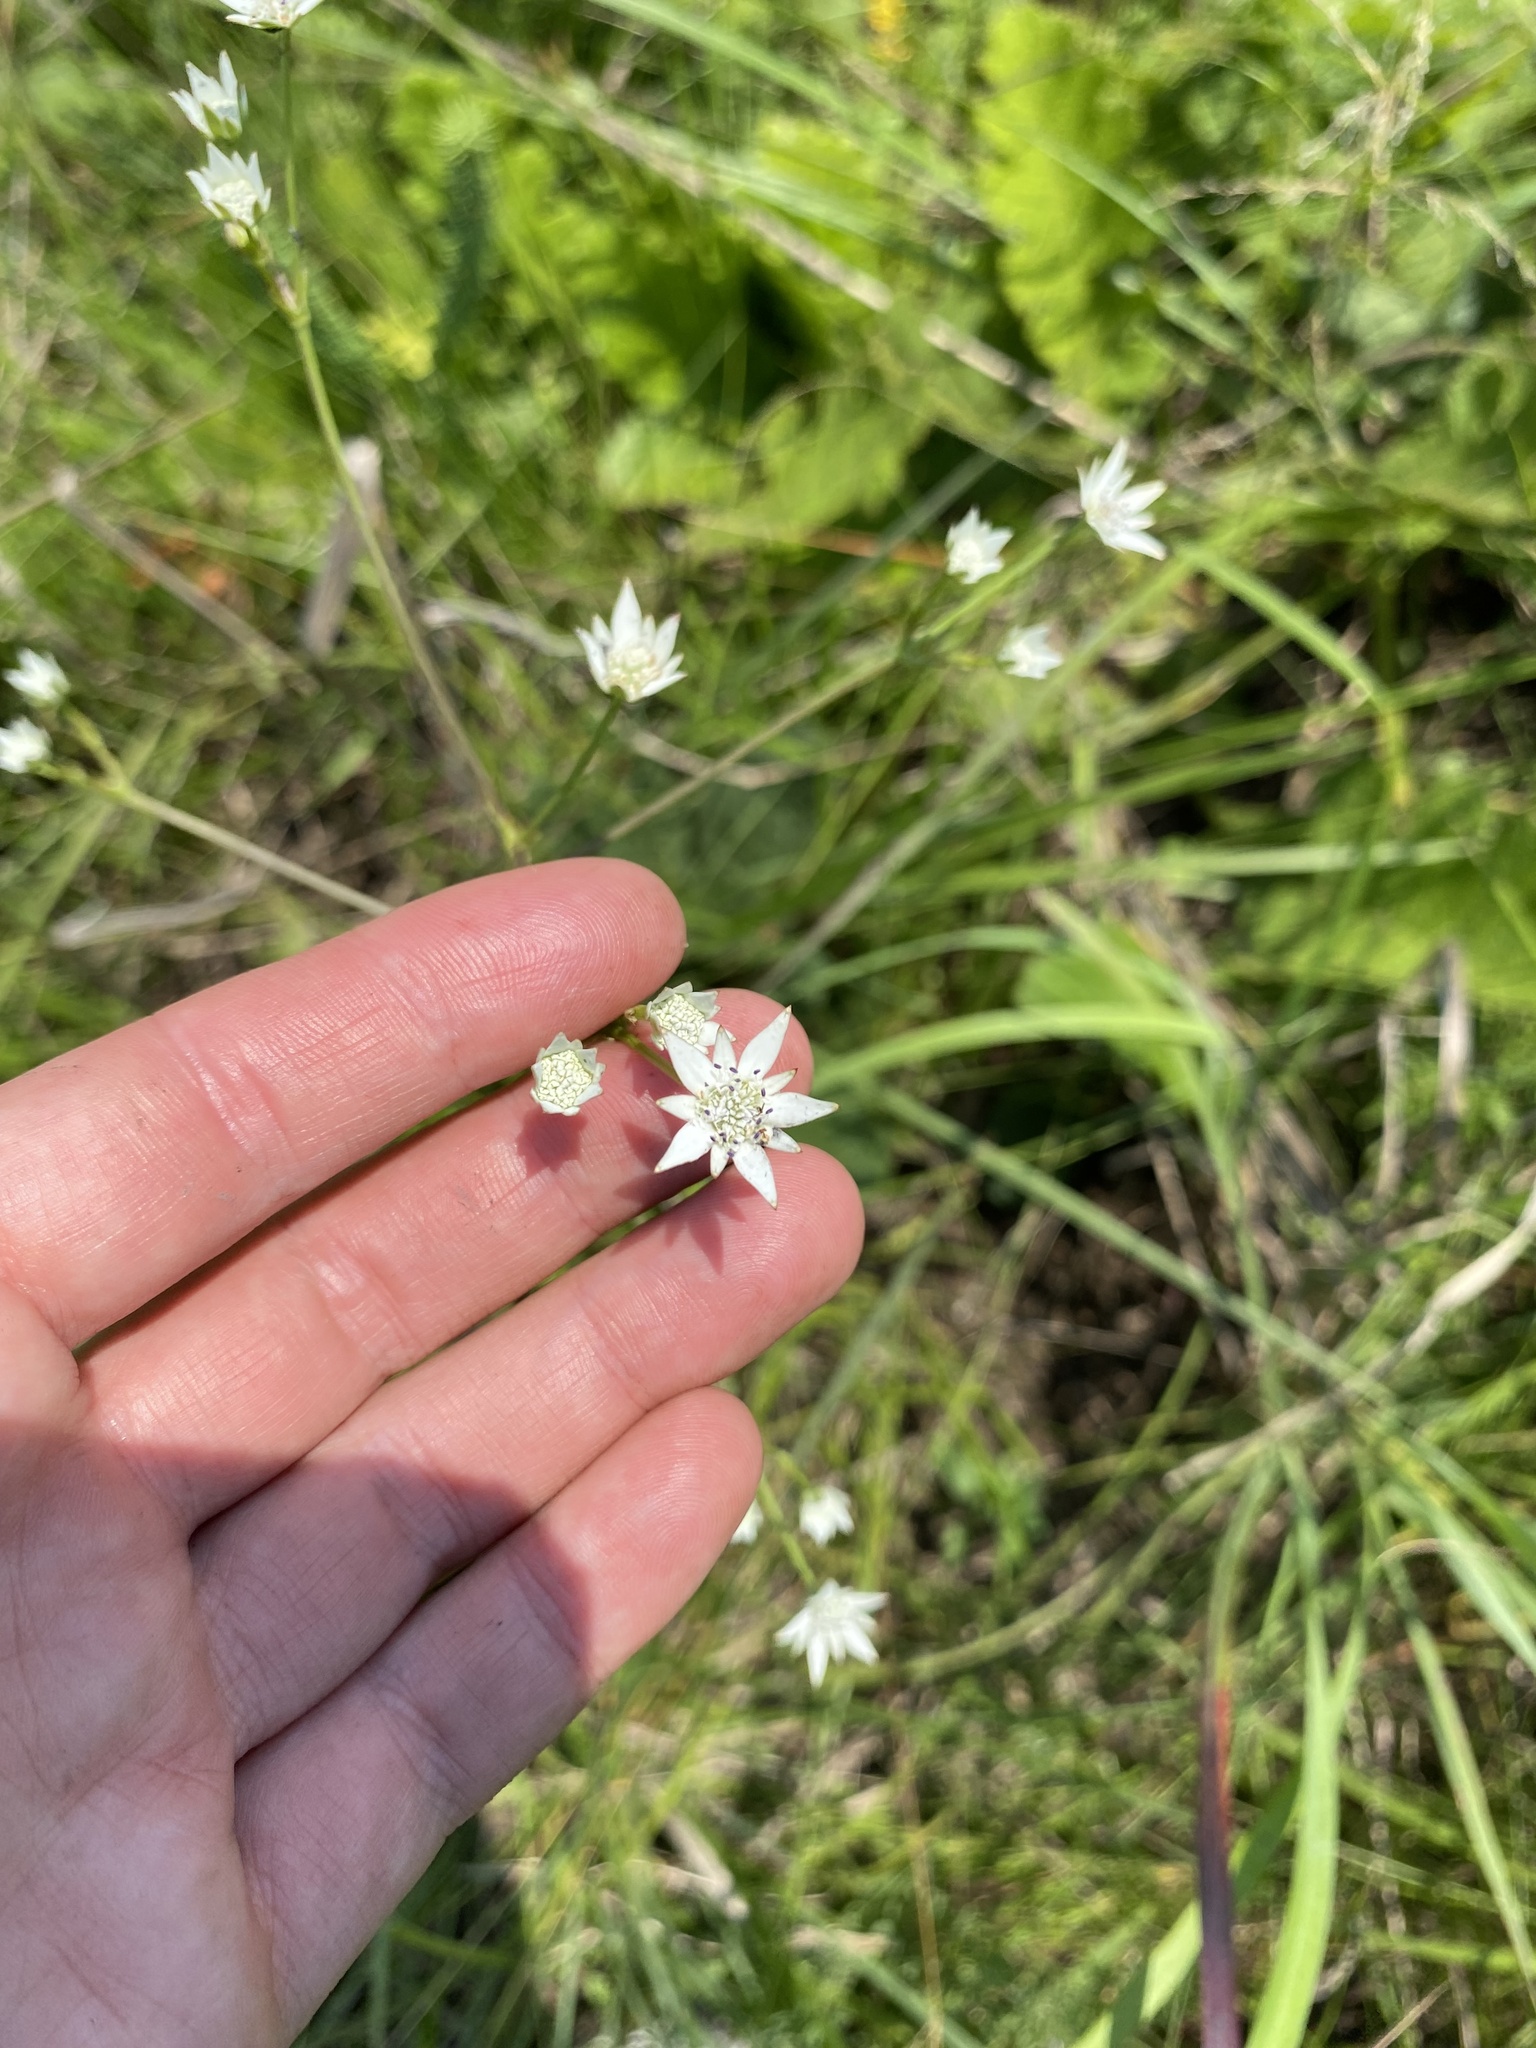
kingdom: Plantae
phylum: Tracheophyta
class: Magnoliopsida
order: Apiales
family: Apiaceae
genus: Alepidea
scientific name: Alepidea peduncularis
